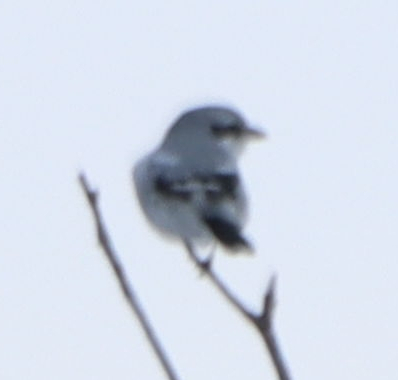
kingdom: Animalia
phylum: Chordata
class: Aves
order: Passeriformes
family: Laniidae
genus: Lanius
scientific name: Lanius borealis
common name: Northern shrike
